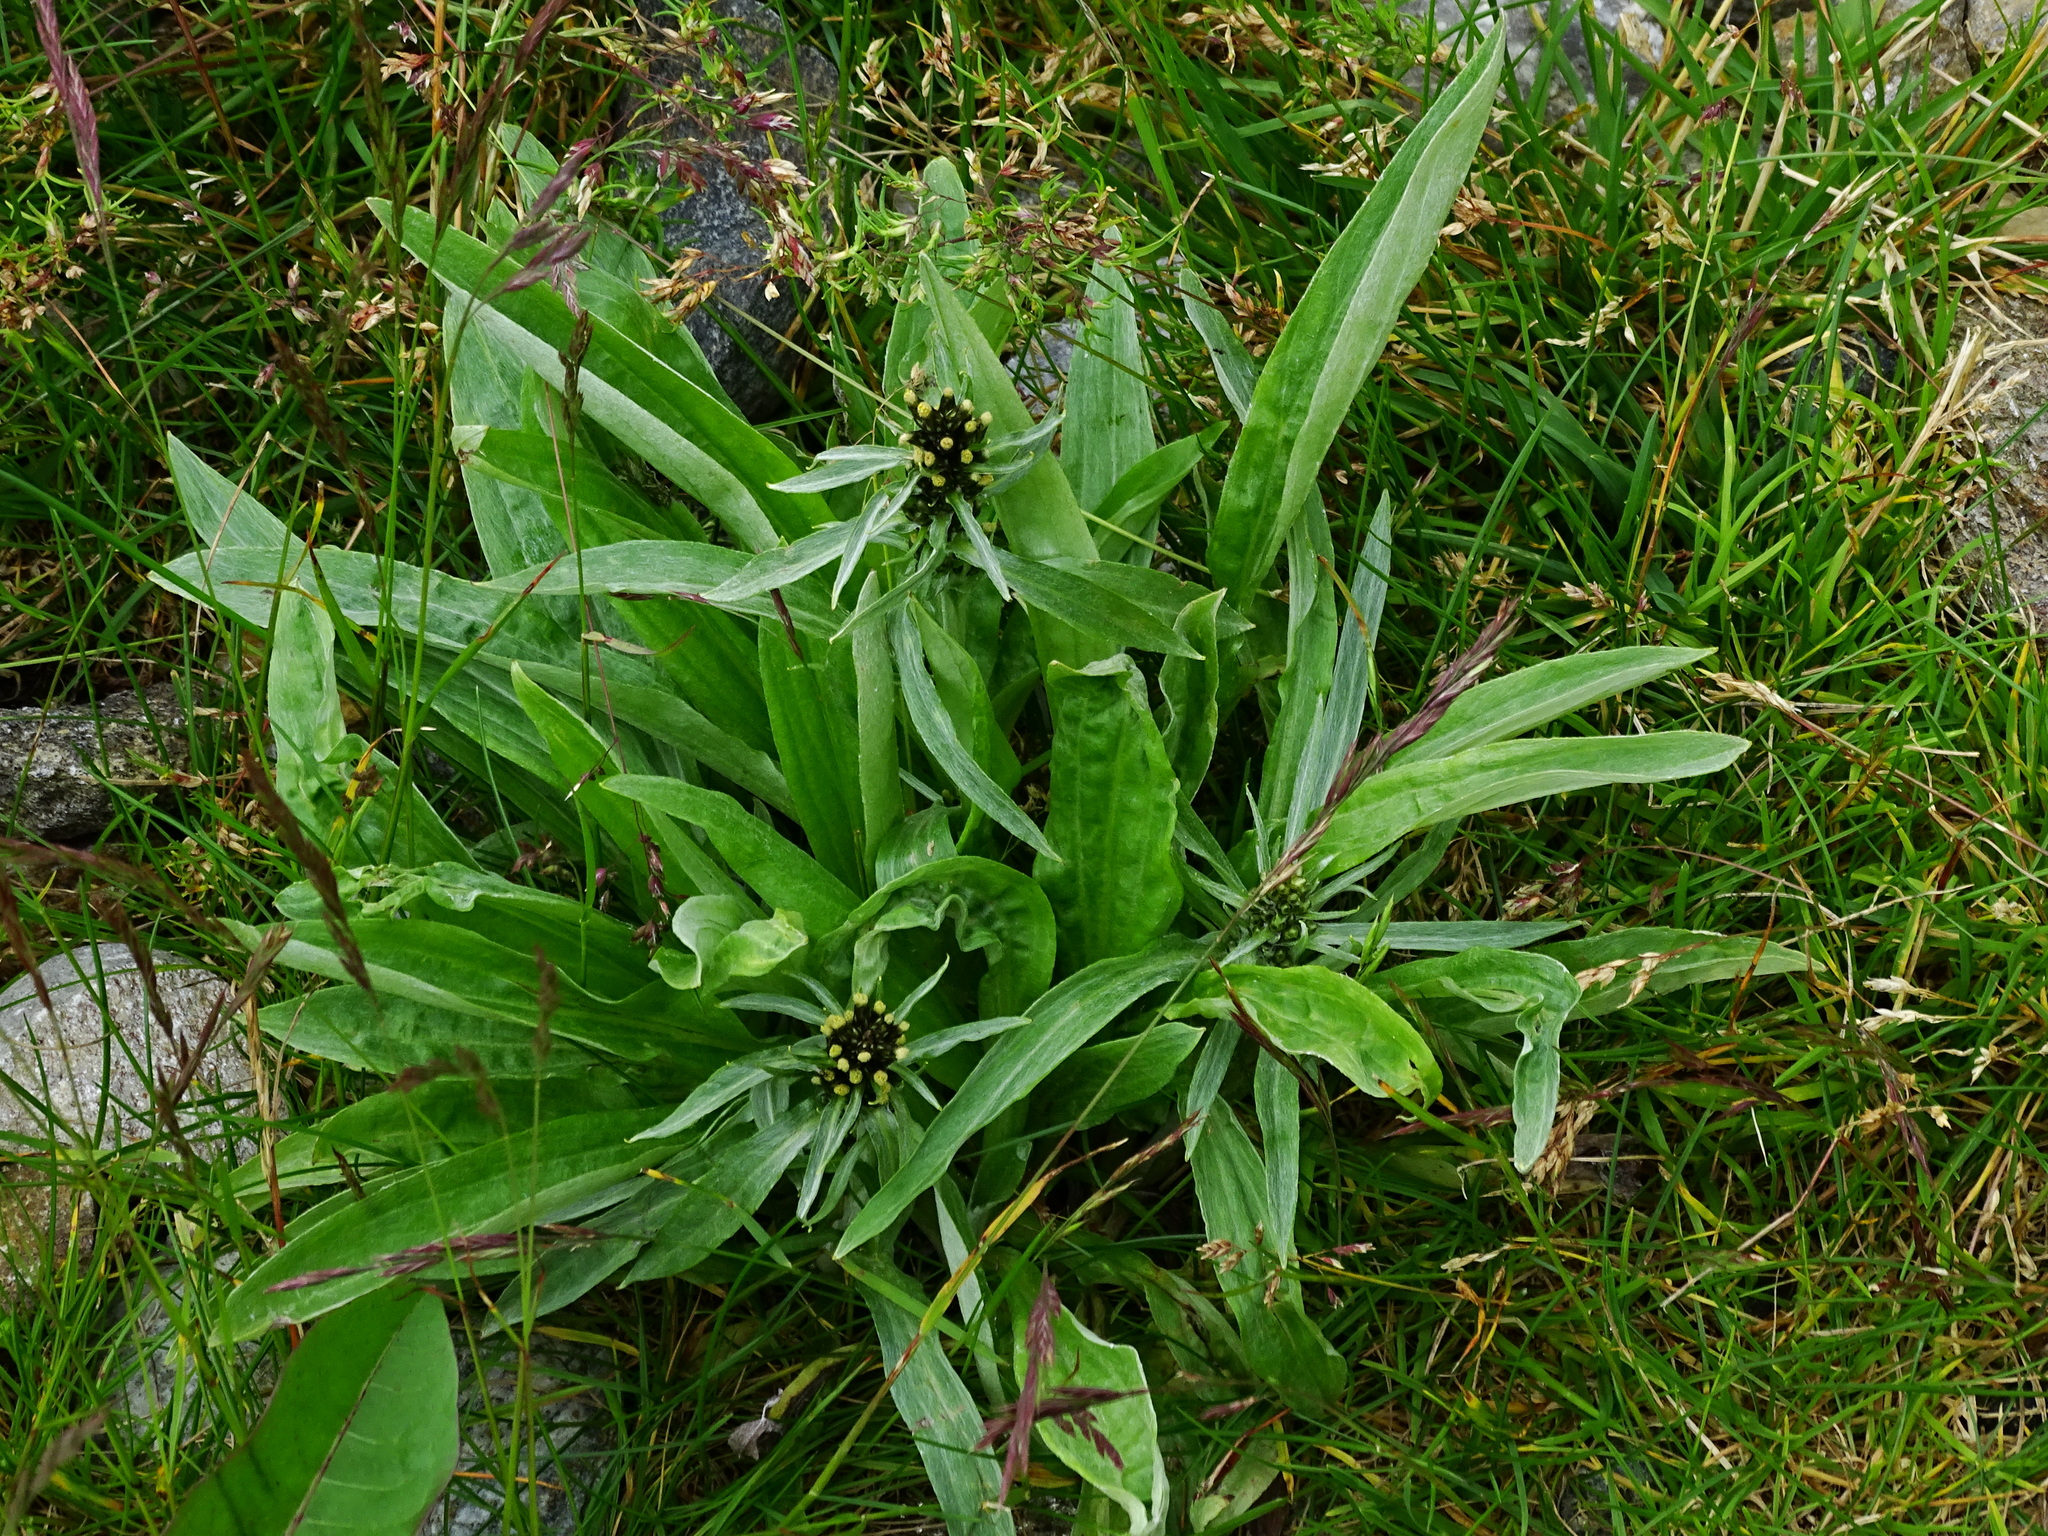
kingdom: Plantae
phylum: Tracheophyta
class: Magnoliopsida
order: Asterales
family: Asteraceae
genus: Omalotheca
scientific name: Omalotheca norvegica
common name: Norwegian arctic-cudweed
